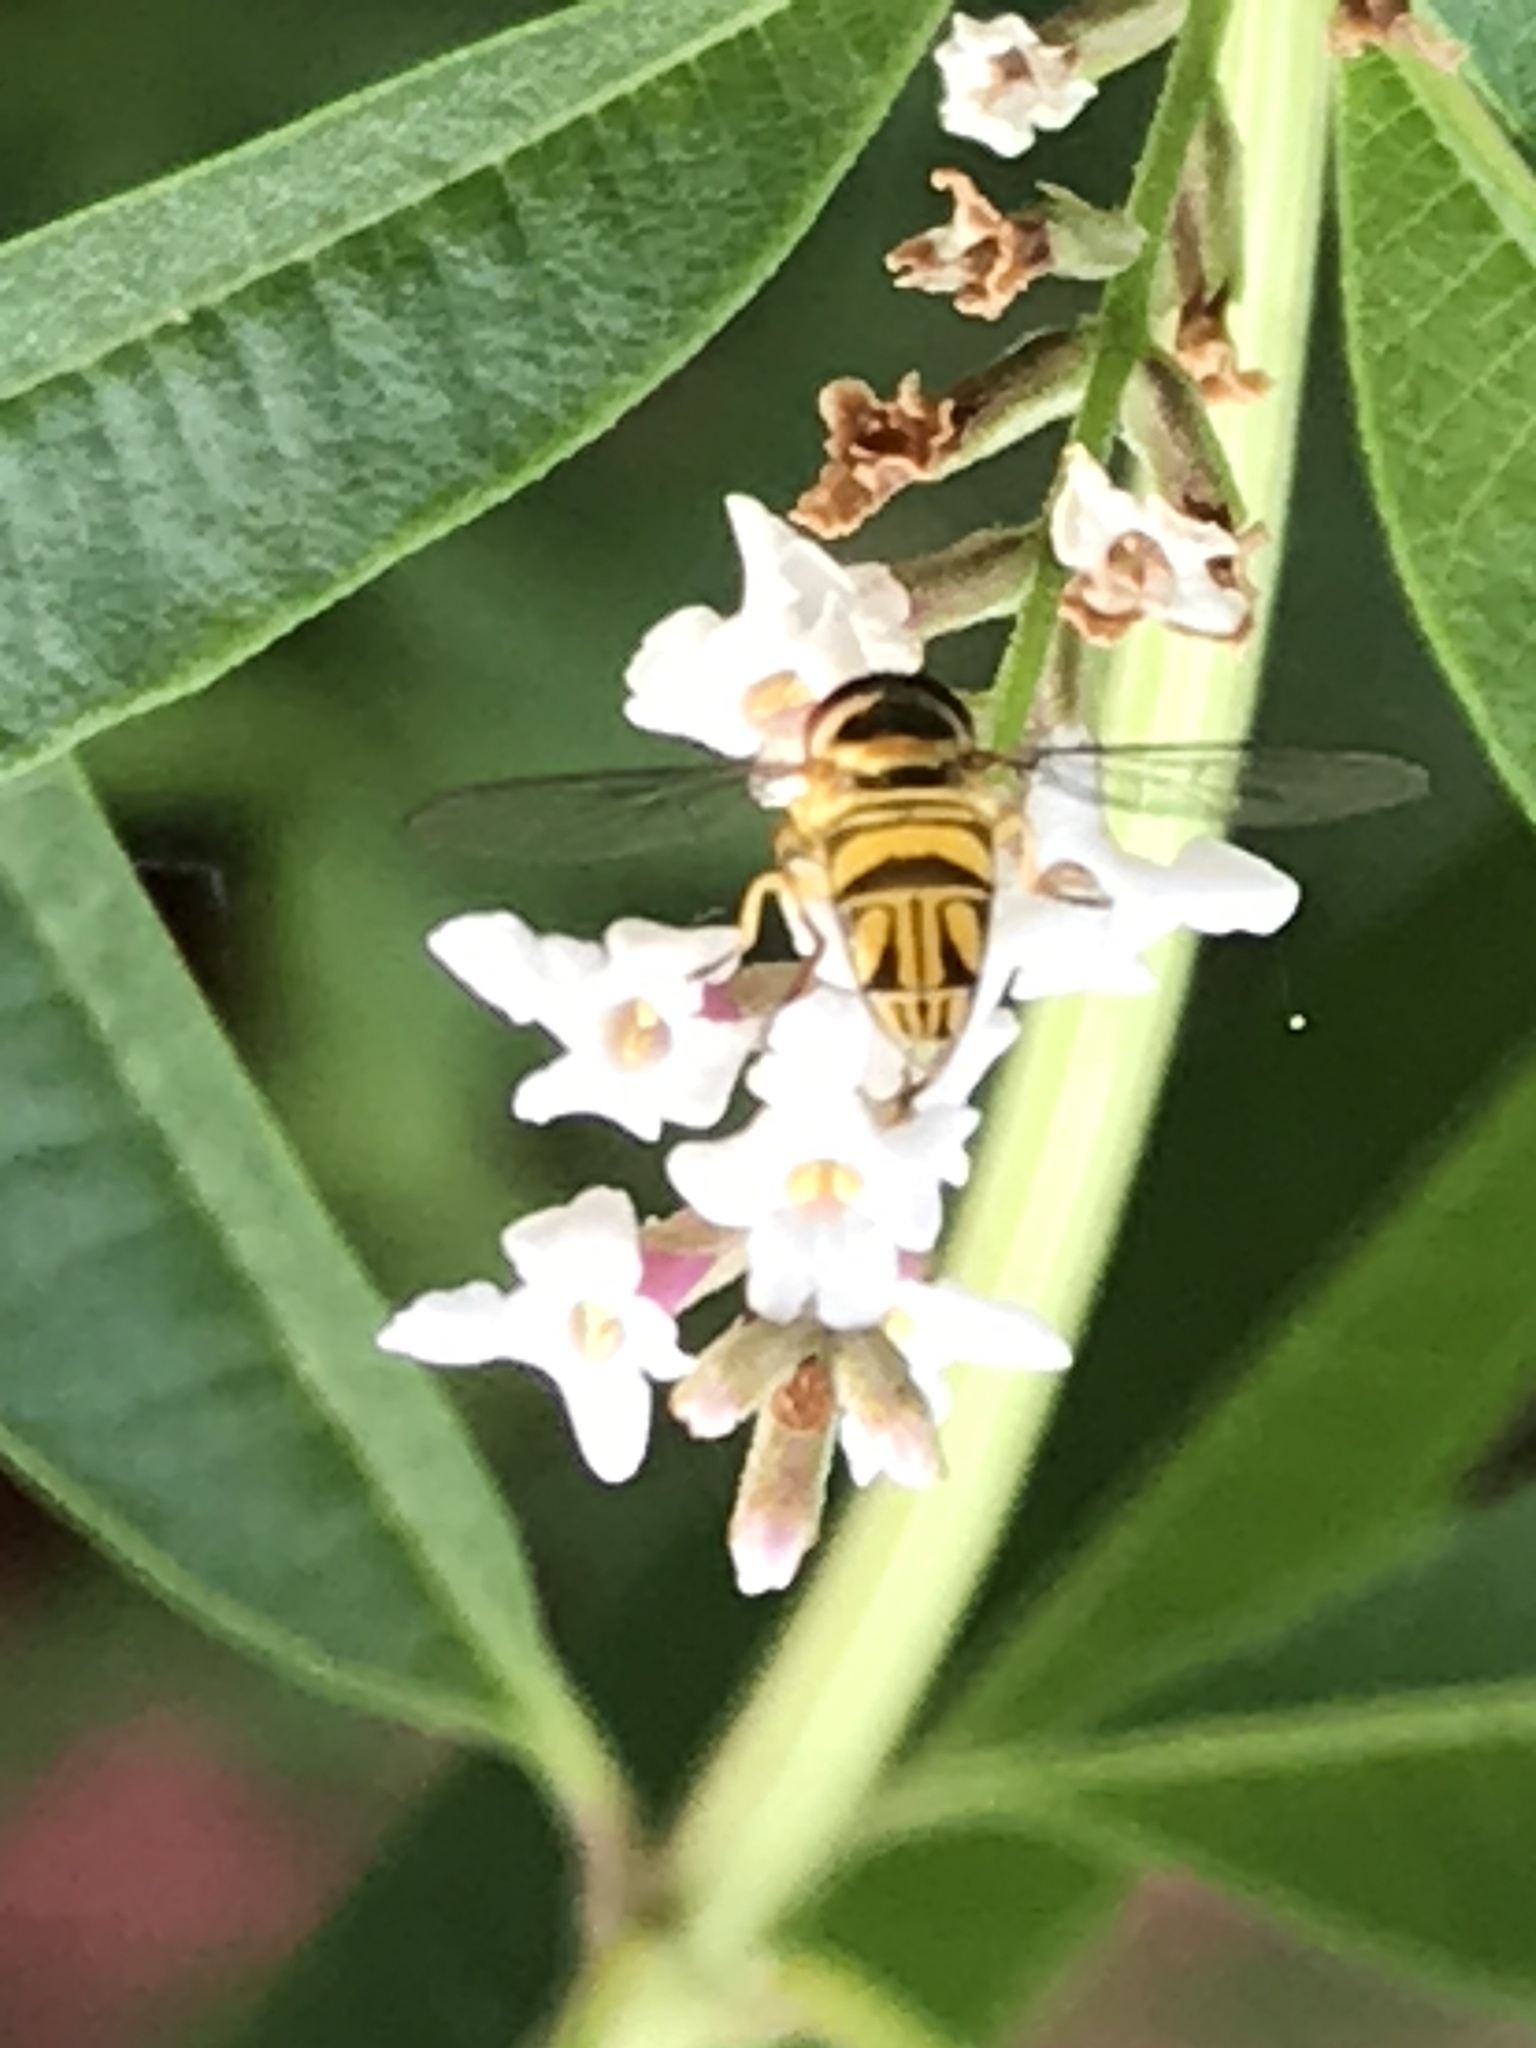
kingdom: Animalia
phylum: Arthropoda
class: Insecta
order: Diptera
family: Syrphidae
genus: Allograpta
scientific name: Allograpta obliqua
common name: Common oblique syrphid
